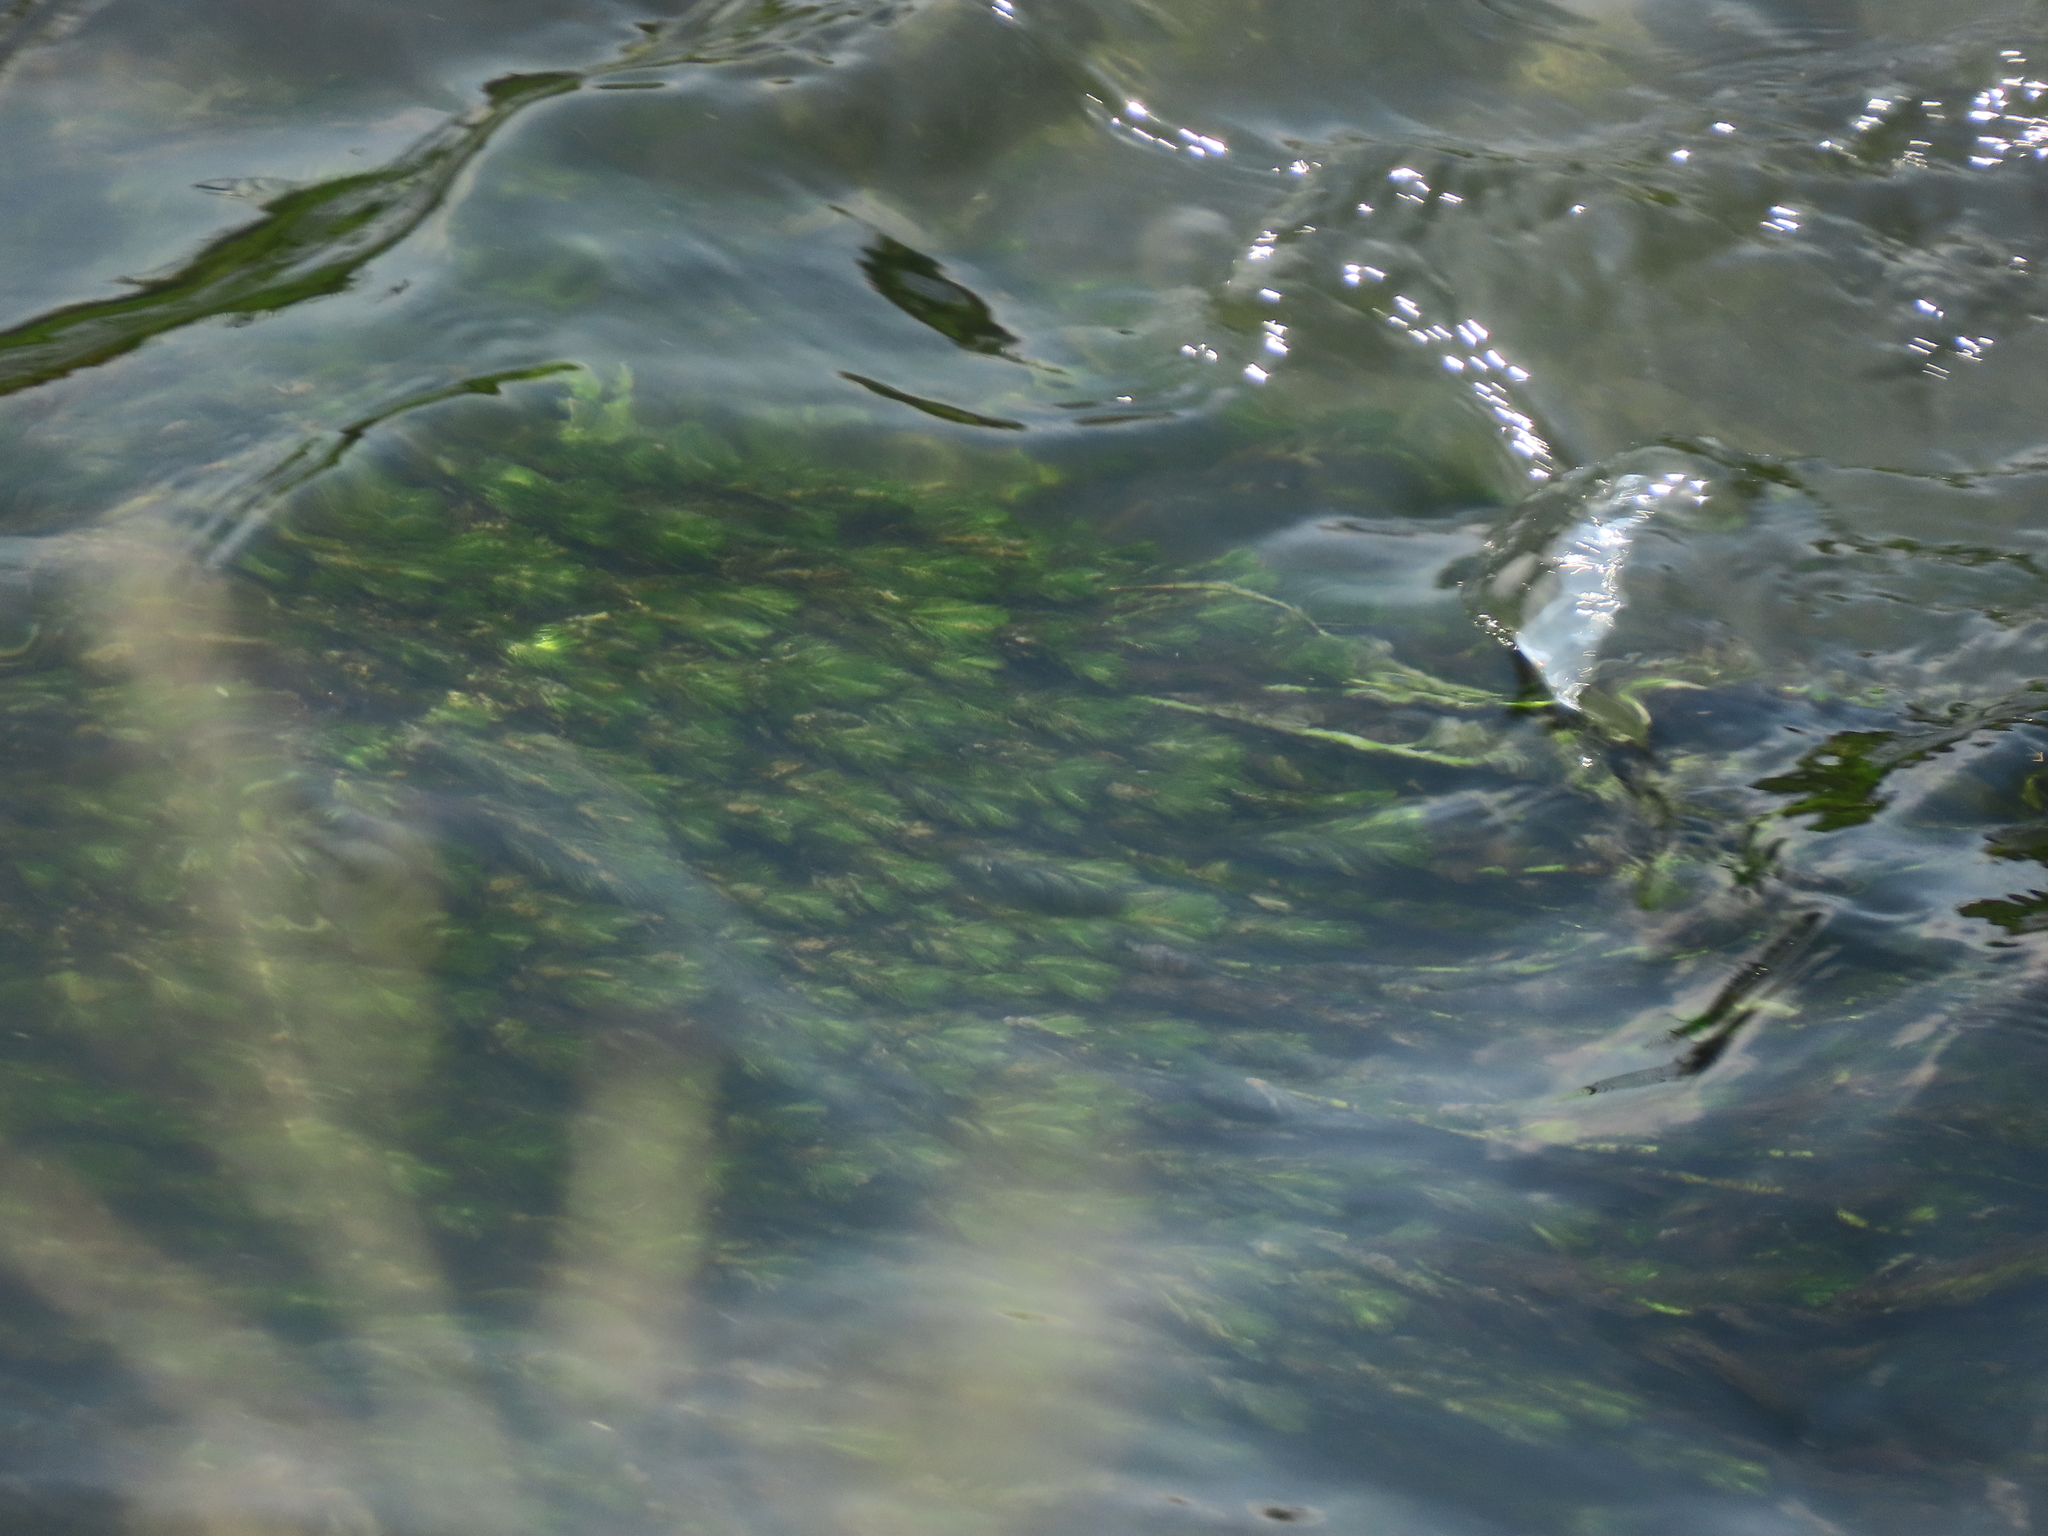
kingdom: Plantae
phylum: Tracheophyta
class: Magnoliopsida
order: Saxifragales
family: Haloragaceae
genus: Myriophyllum
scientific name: Myriophyllum spicatum
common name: Spiked water-milfoil
